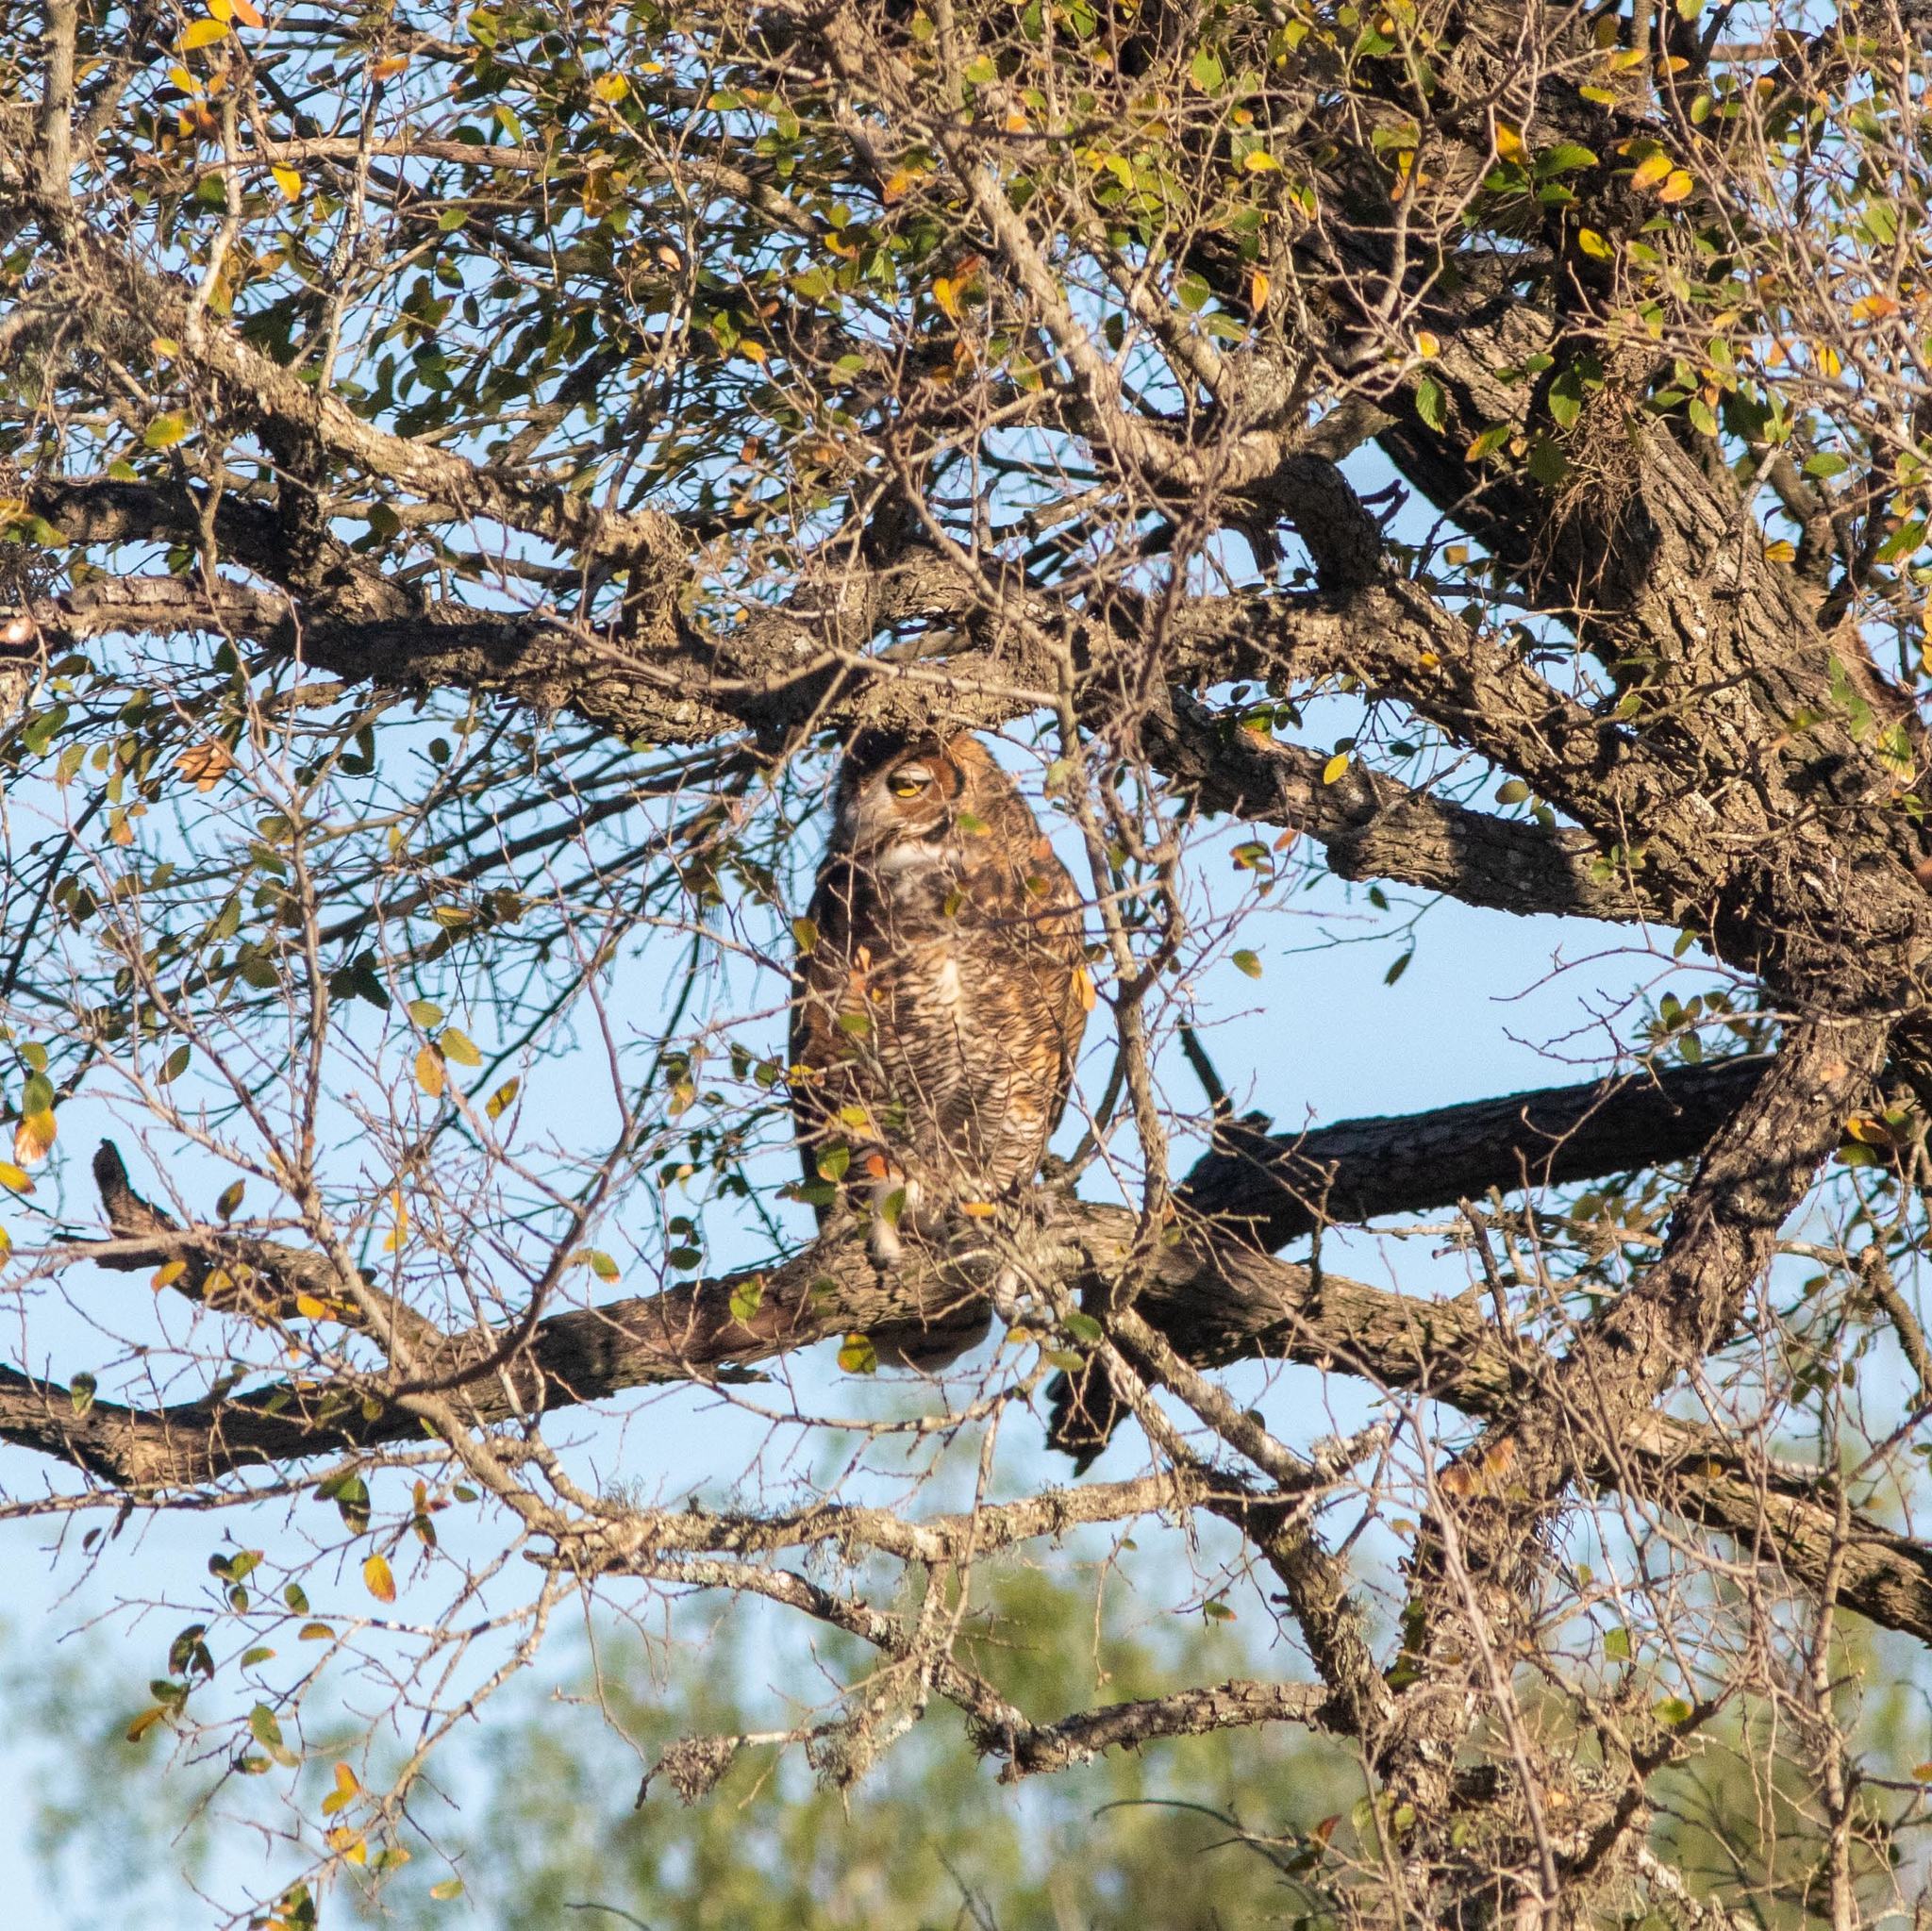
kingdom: Animalia
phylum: Chordata
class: Aves
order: Strigiformes
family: Strigidae
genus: Bubo
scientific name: Bubo virginianus
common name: Great horned owl
